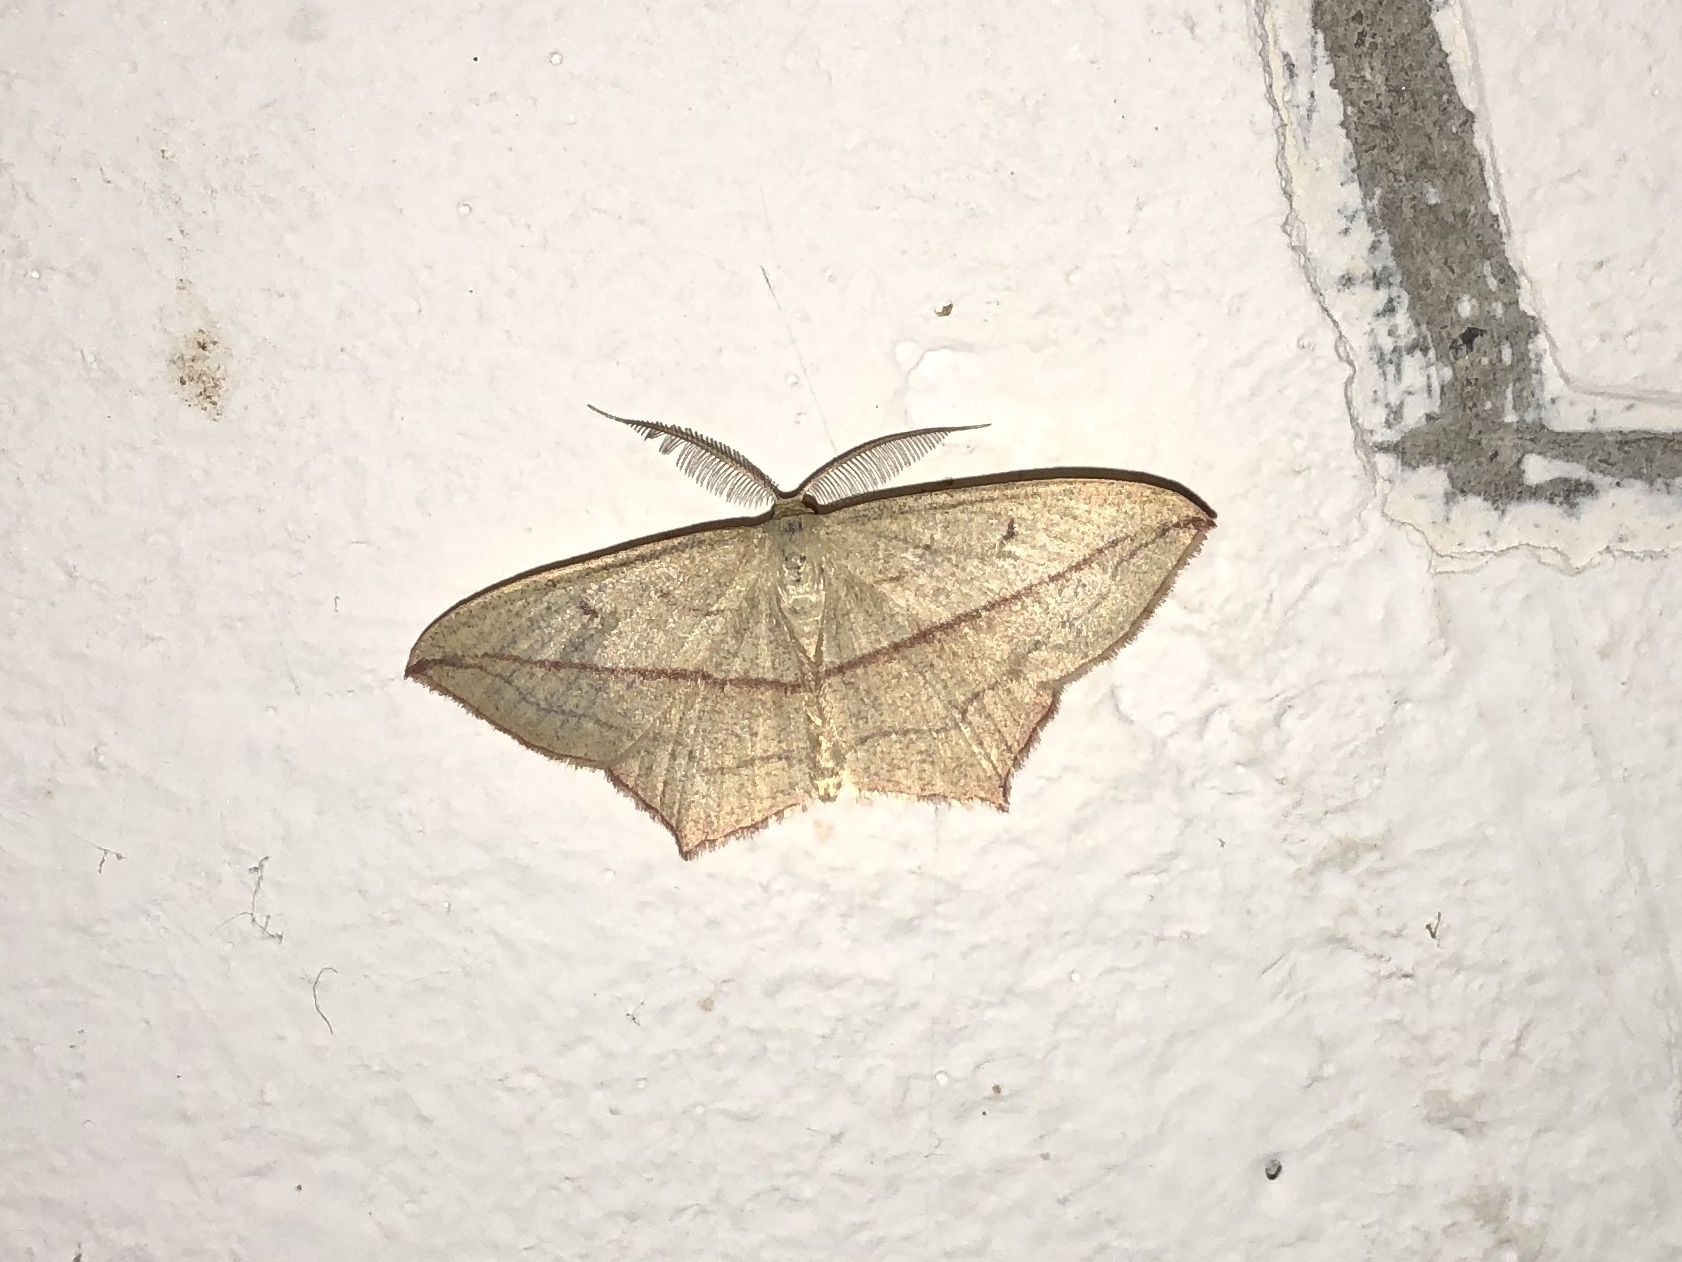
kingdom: Animalia
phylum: Arthropoda
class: Insecta
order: Lepidoptera
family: Geometridae
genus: Timandra
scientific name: Timandra comae
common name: Blood-vein
